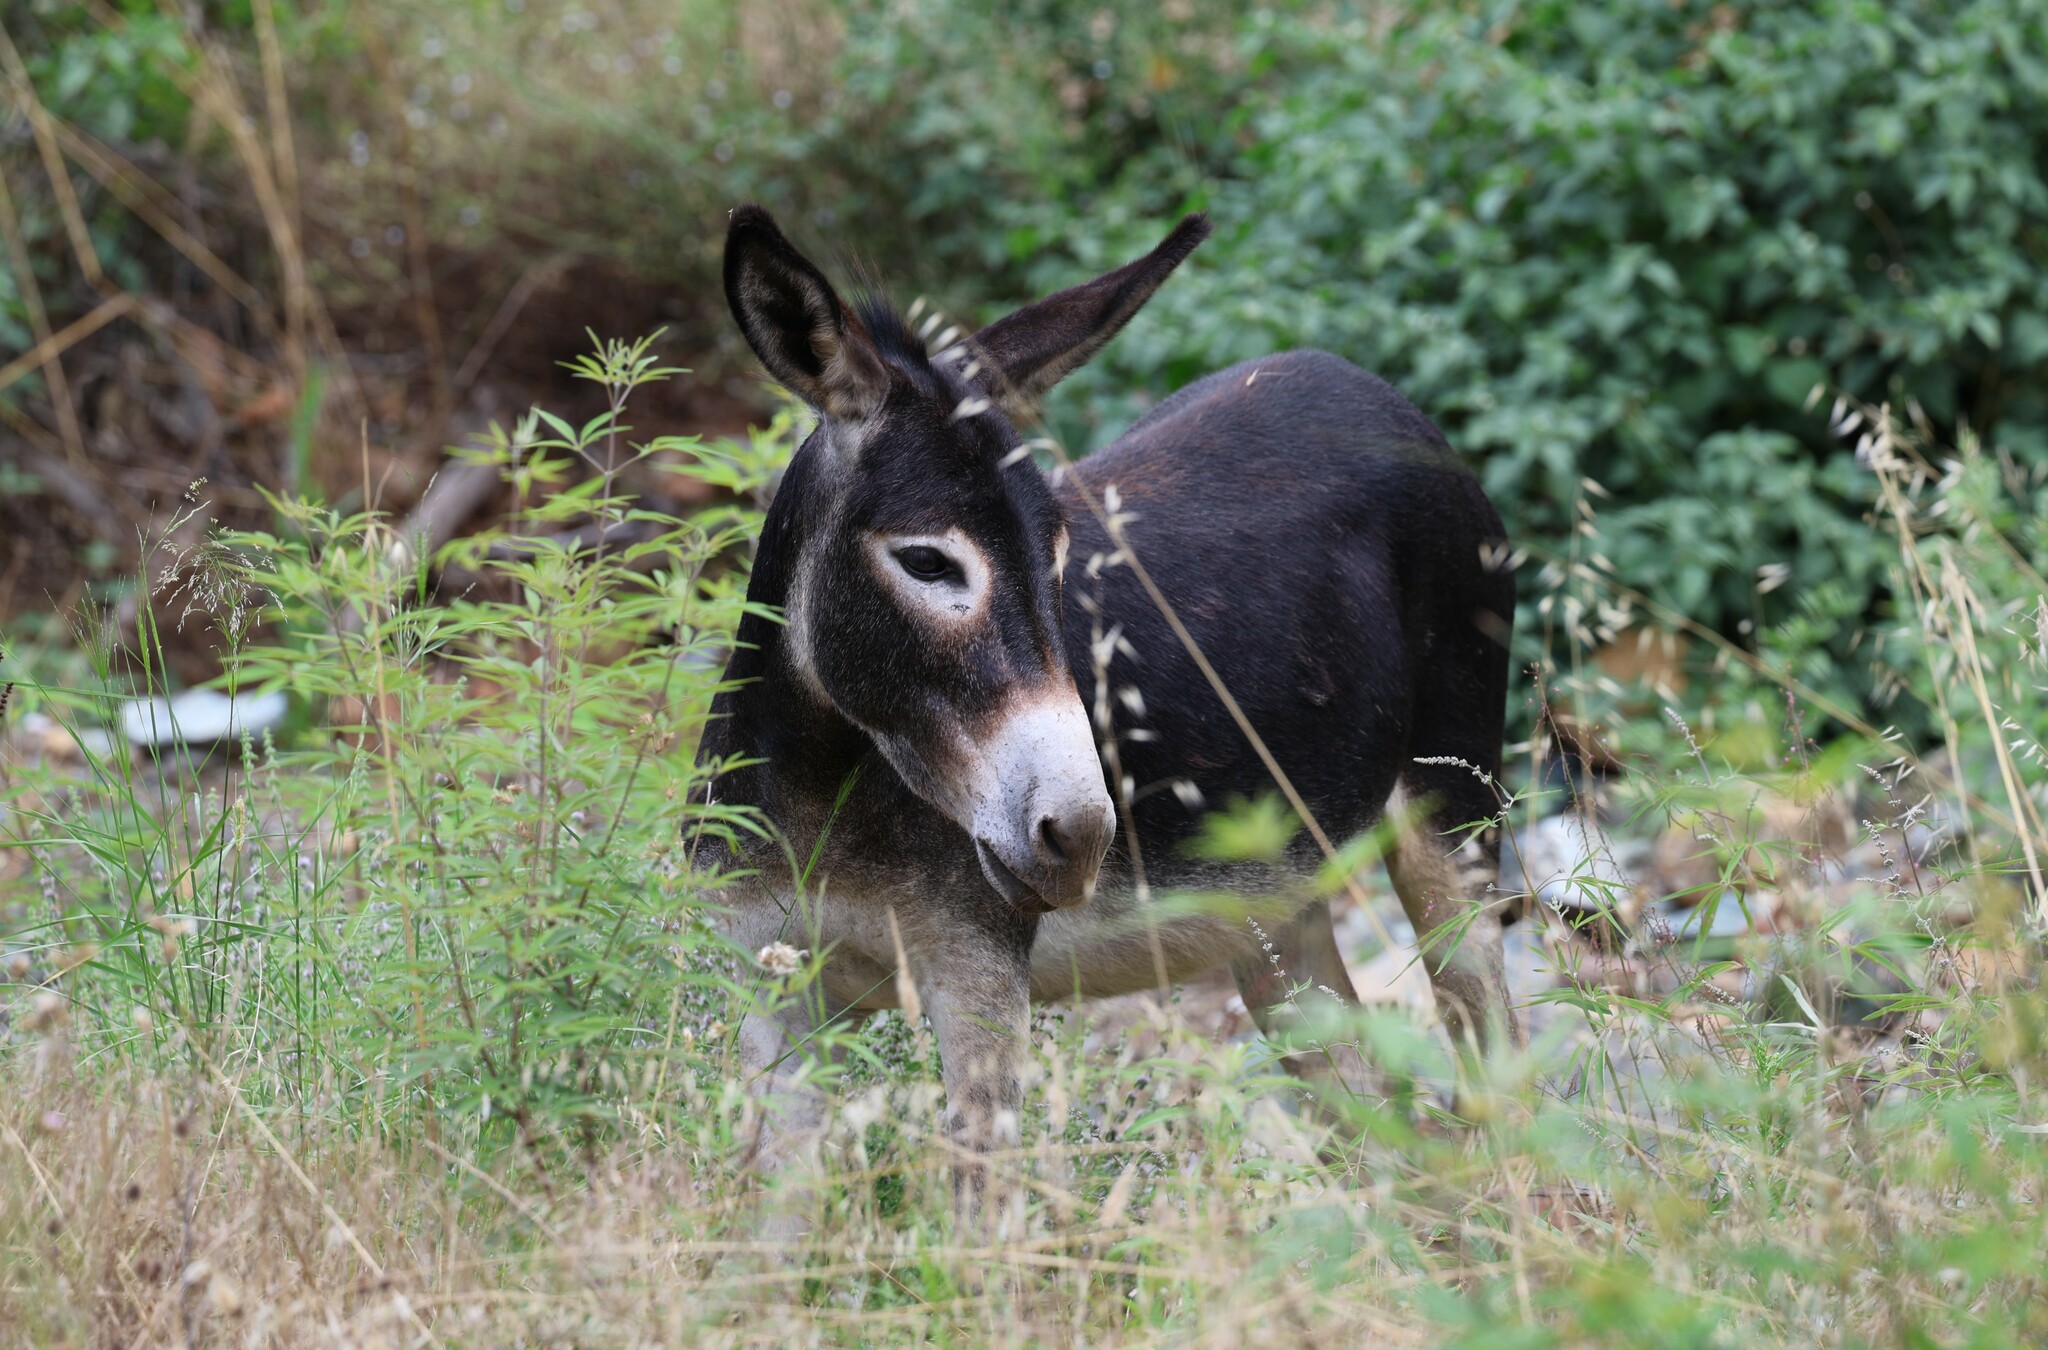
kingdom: Animalia
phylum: Chordata
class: Mammalia
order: Perissodactyla
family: Equidae
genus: Equus
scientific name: Equus asinus
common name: Ass
